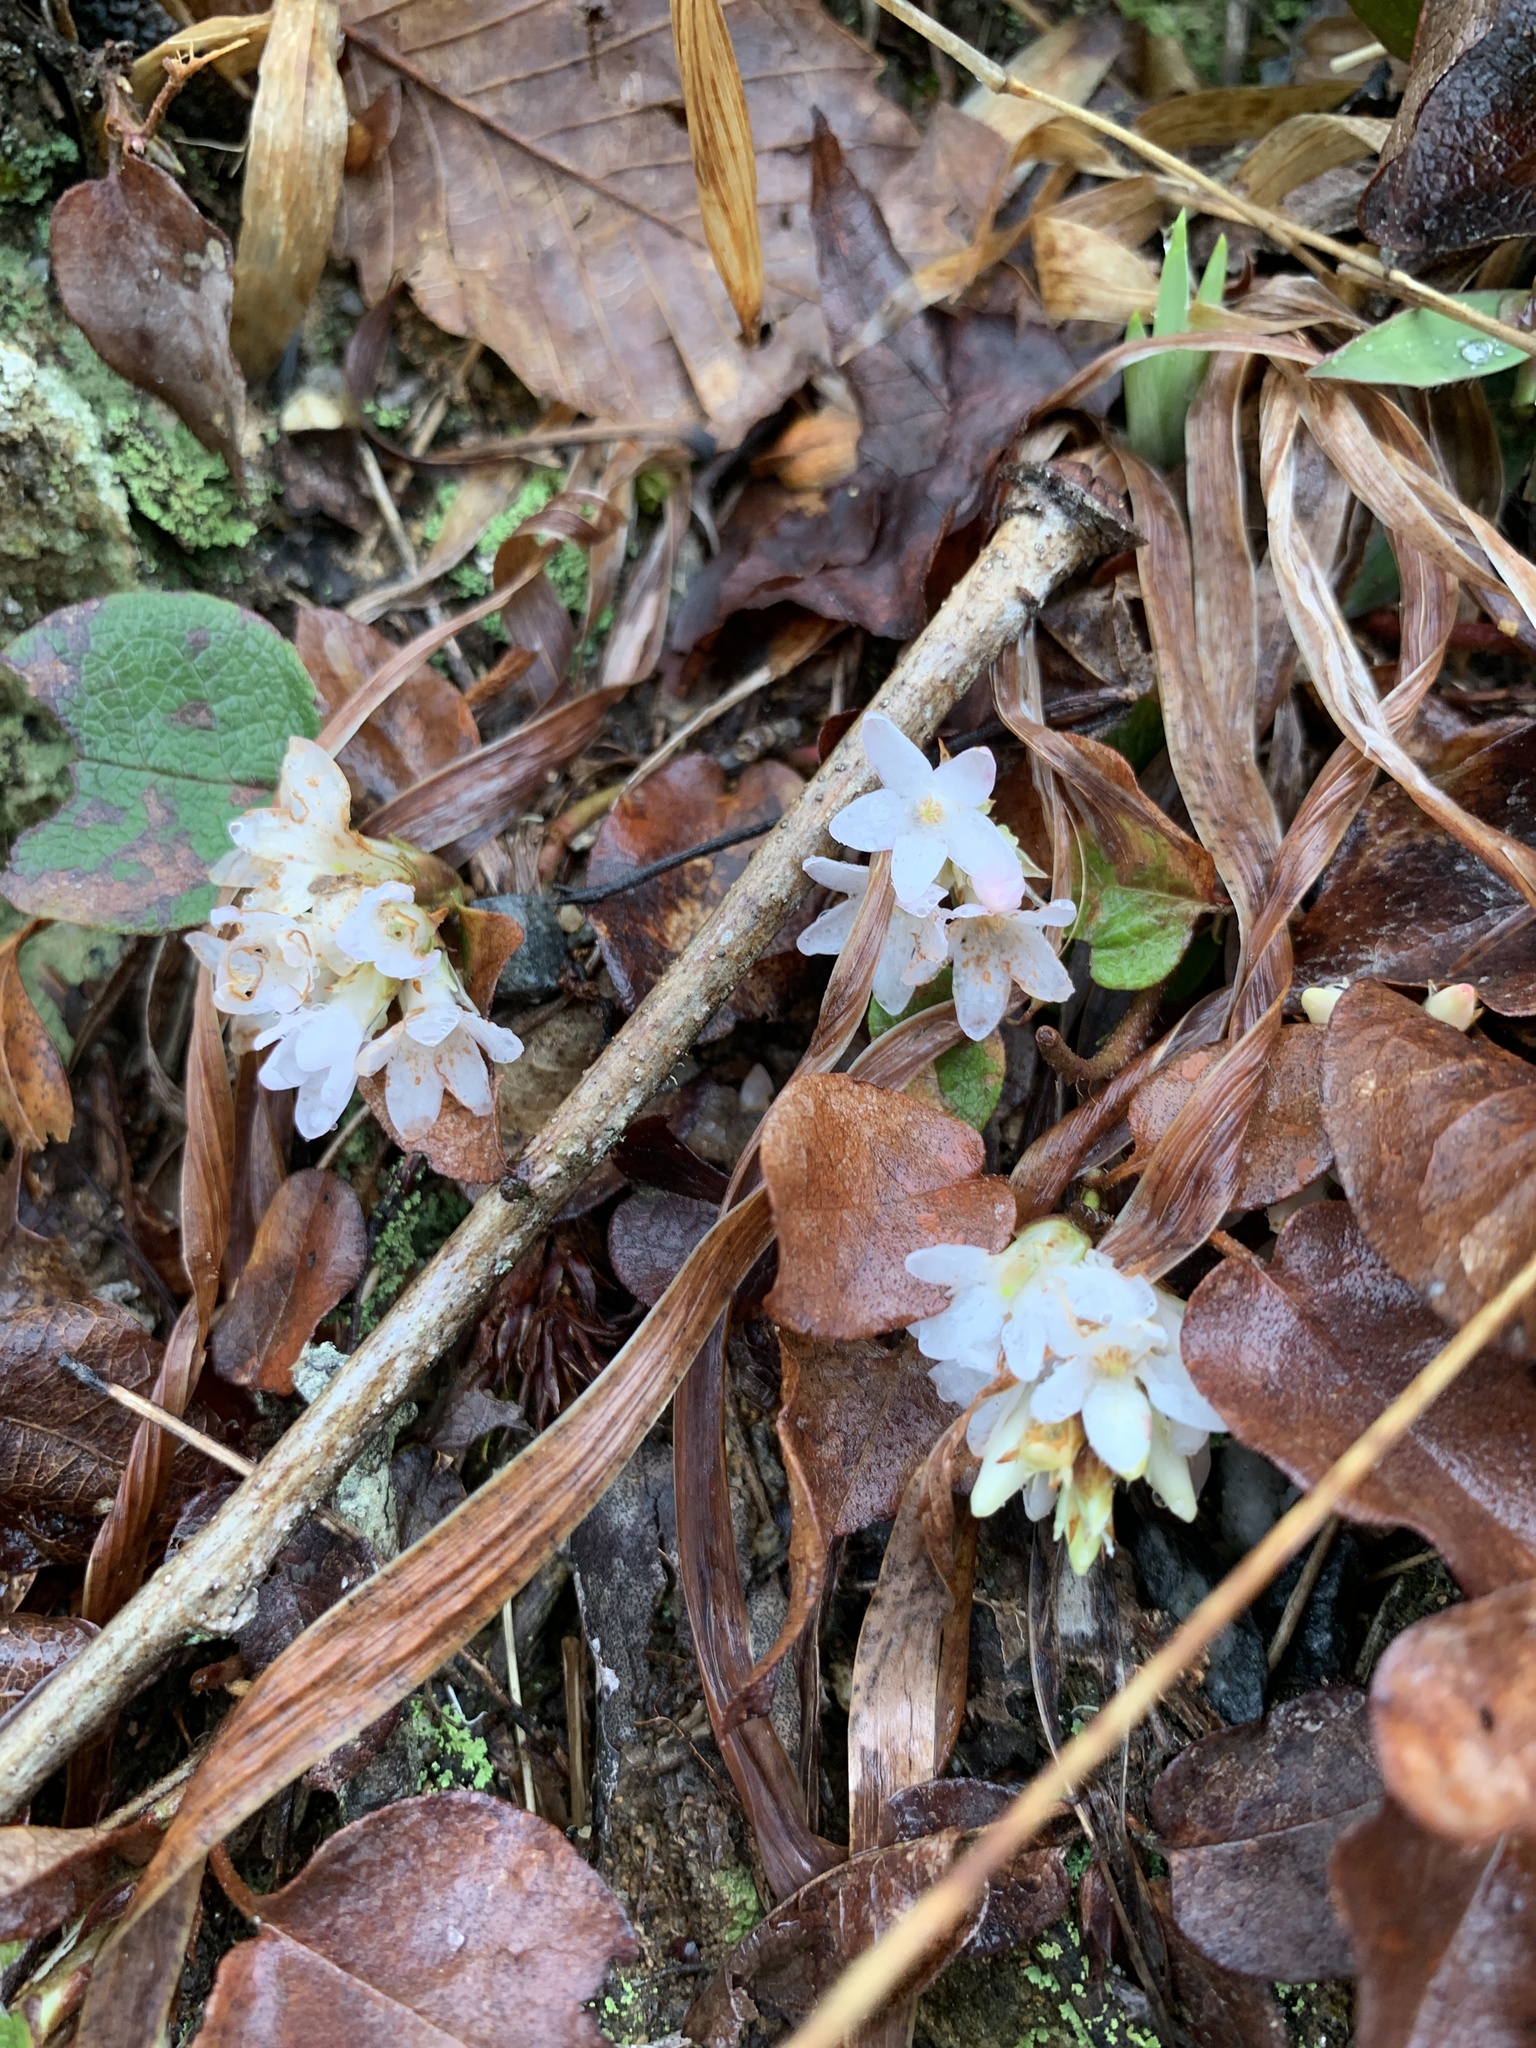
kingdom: Plantae
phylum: Tracheophyta
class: Magnoliopsida
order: Ericales
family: Ericaceae
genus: Epigaea
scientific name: Epigaea repens
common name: Gravelroot
